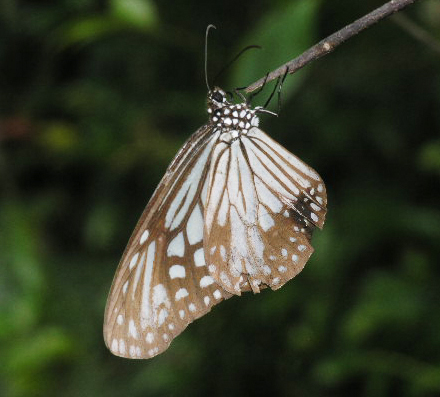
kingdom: Animalia
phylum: Arthropoda
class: Insecta
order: Lepidoptera
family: Nymphalidae
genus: Parantica
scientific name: Parantica aglea
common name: Glassy tiger
